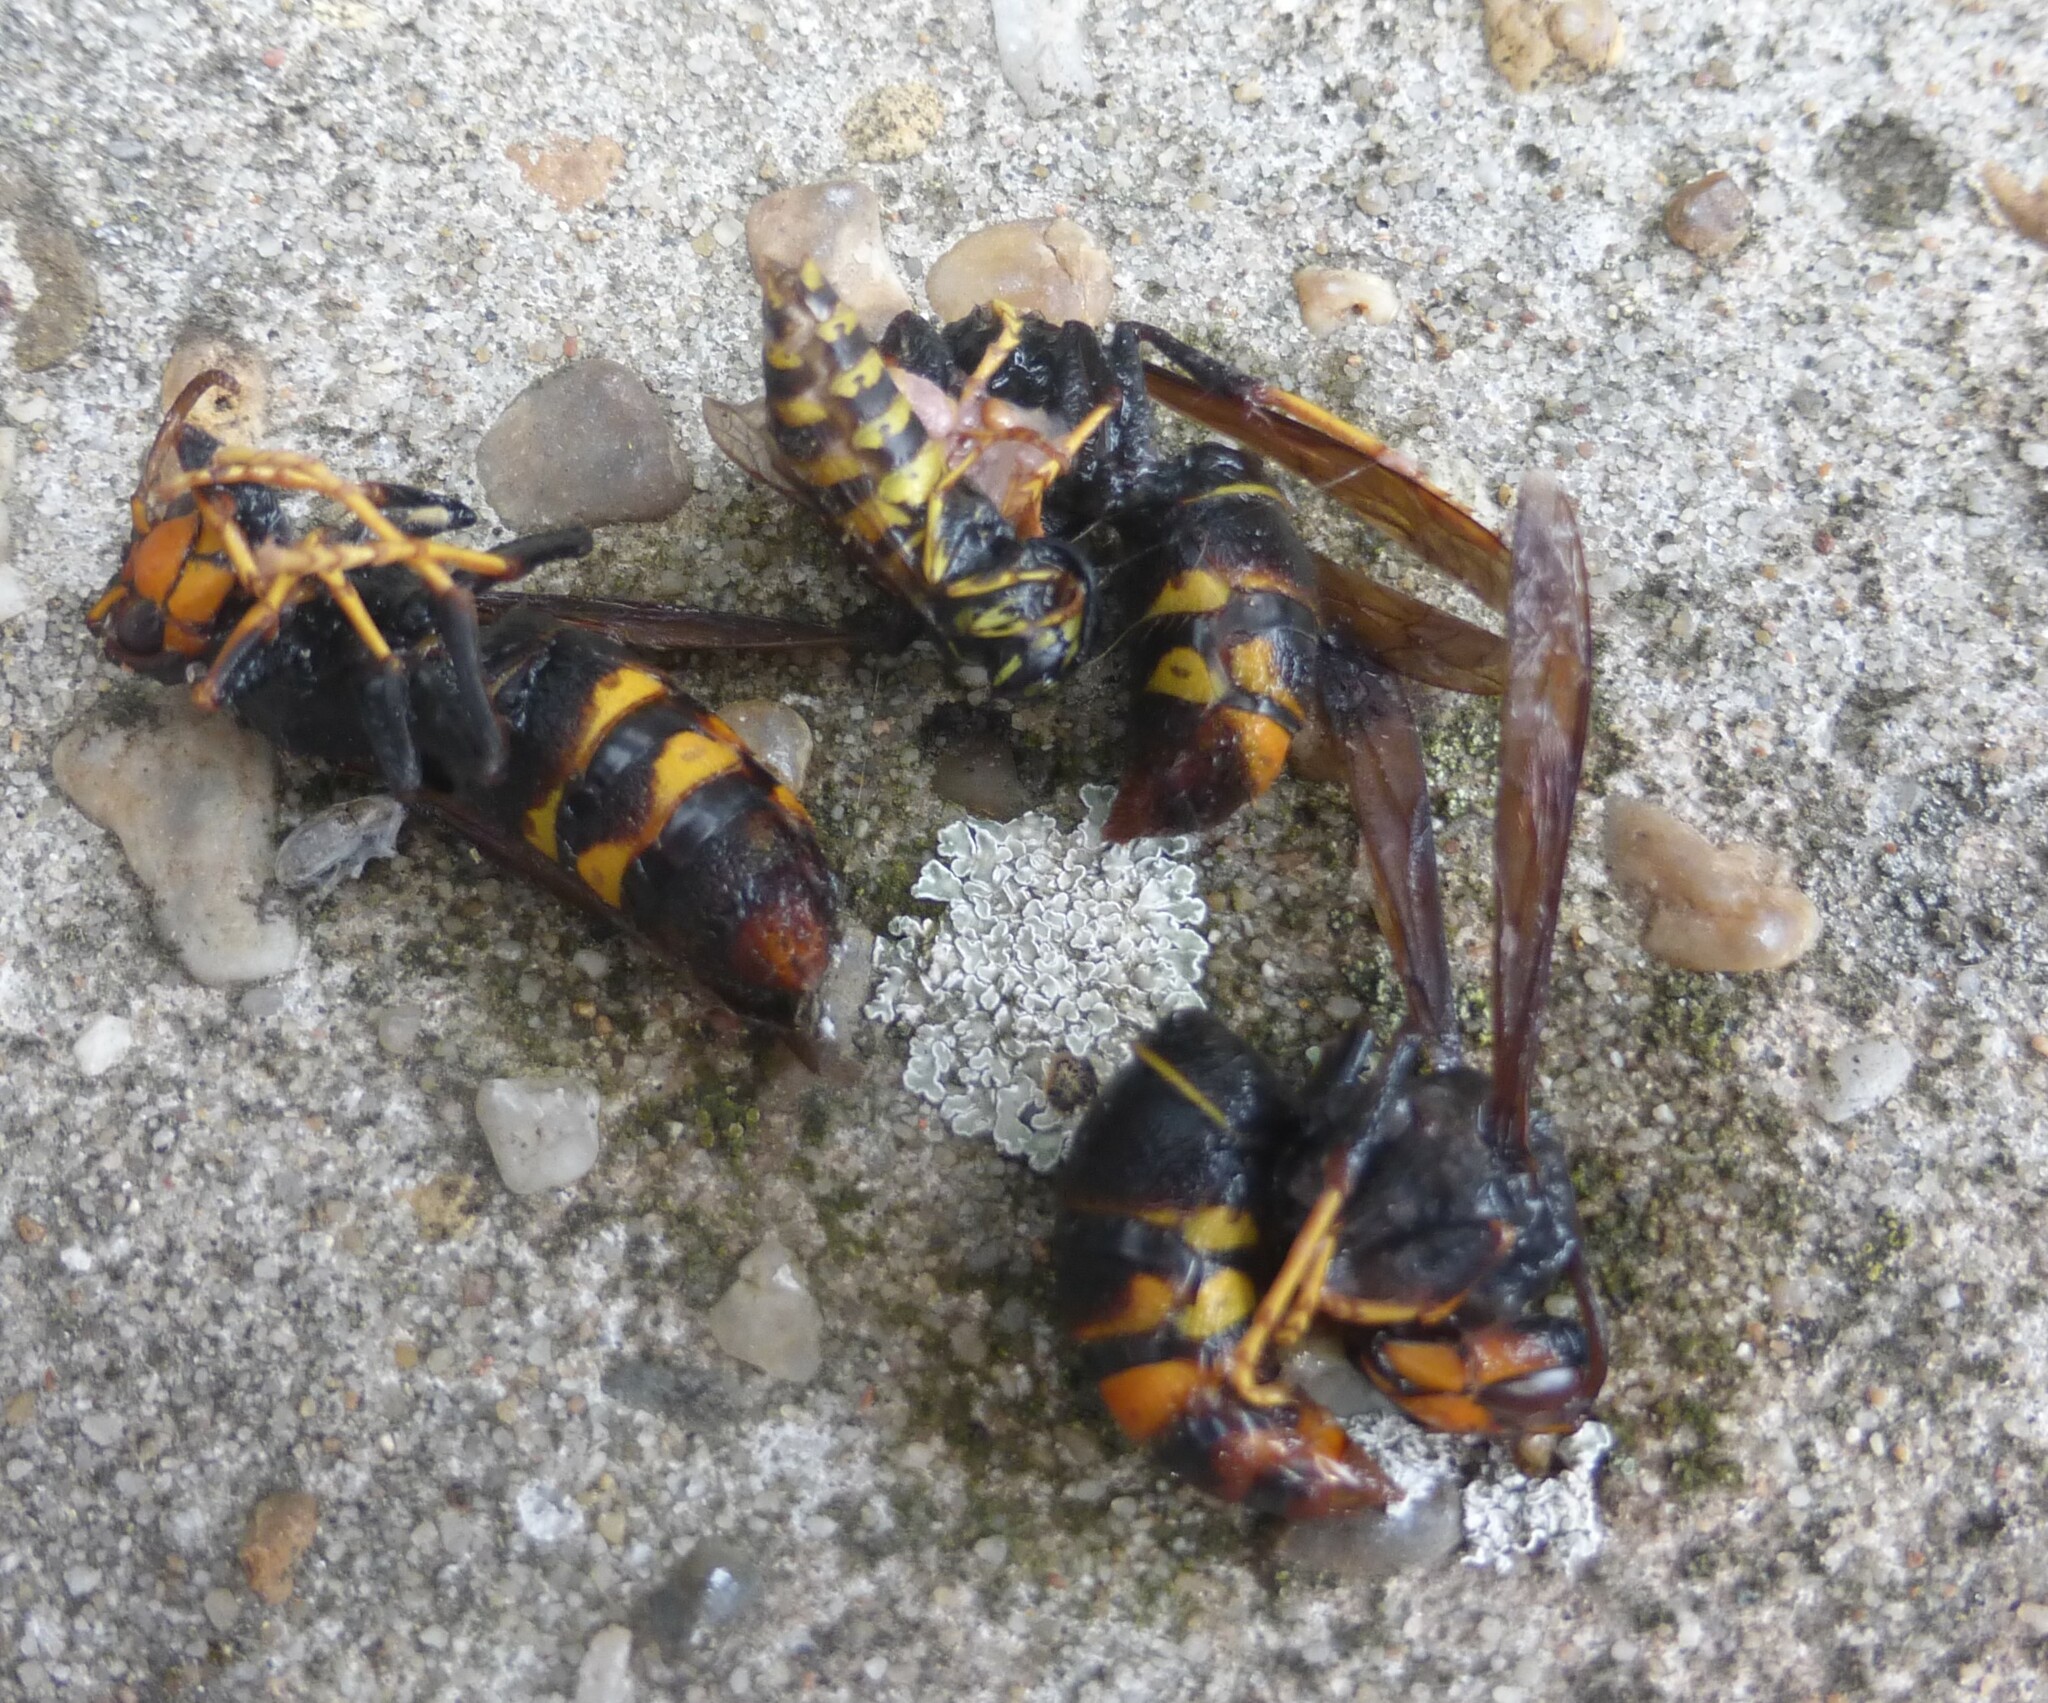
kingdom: Animalia
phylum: Arthropoda
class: Insecta
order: Hymenoptera
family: Vespidae
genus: Vespa
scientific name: Vespa velutina
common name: Asian hornet
